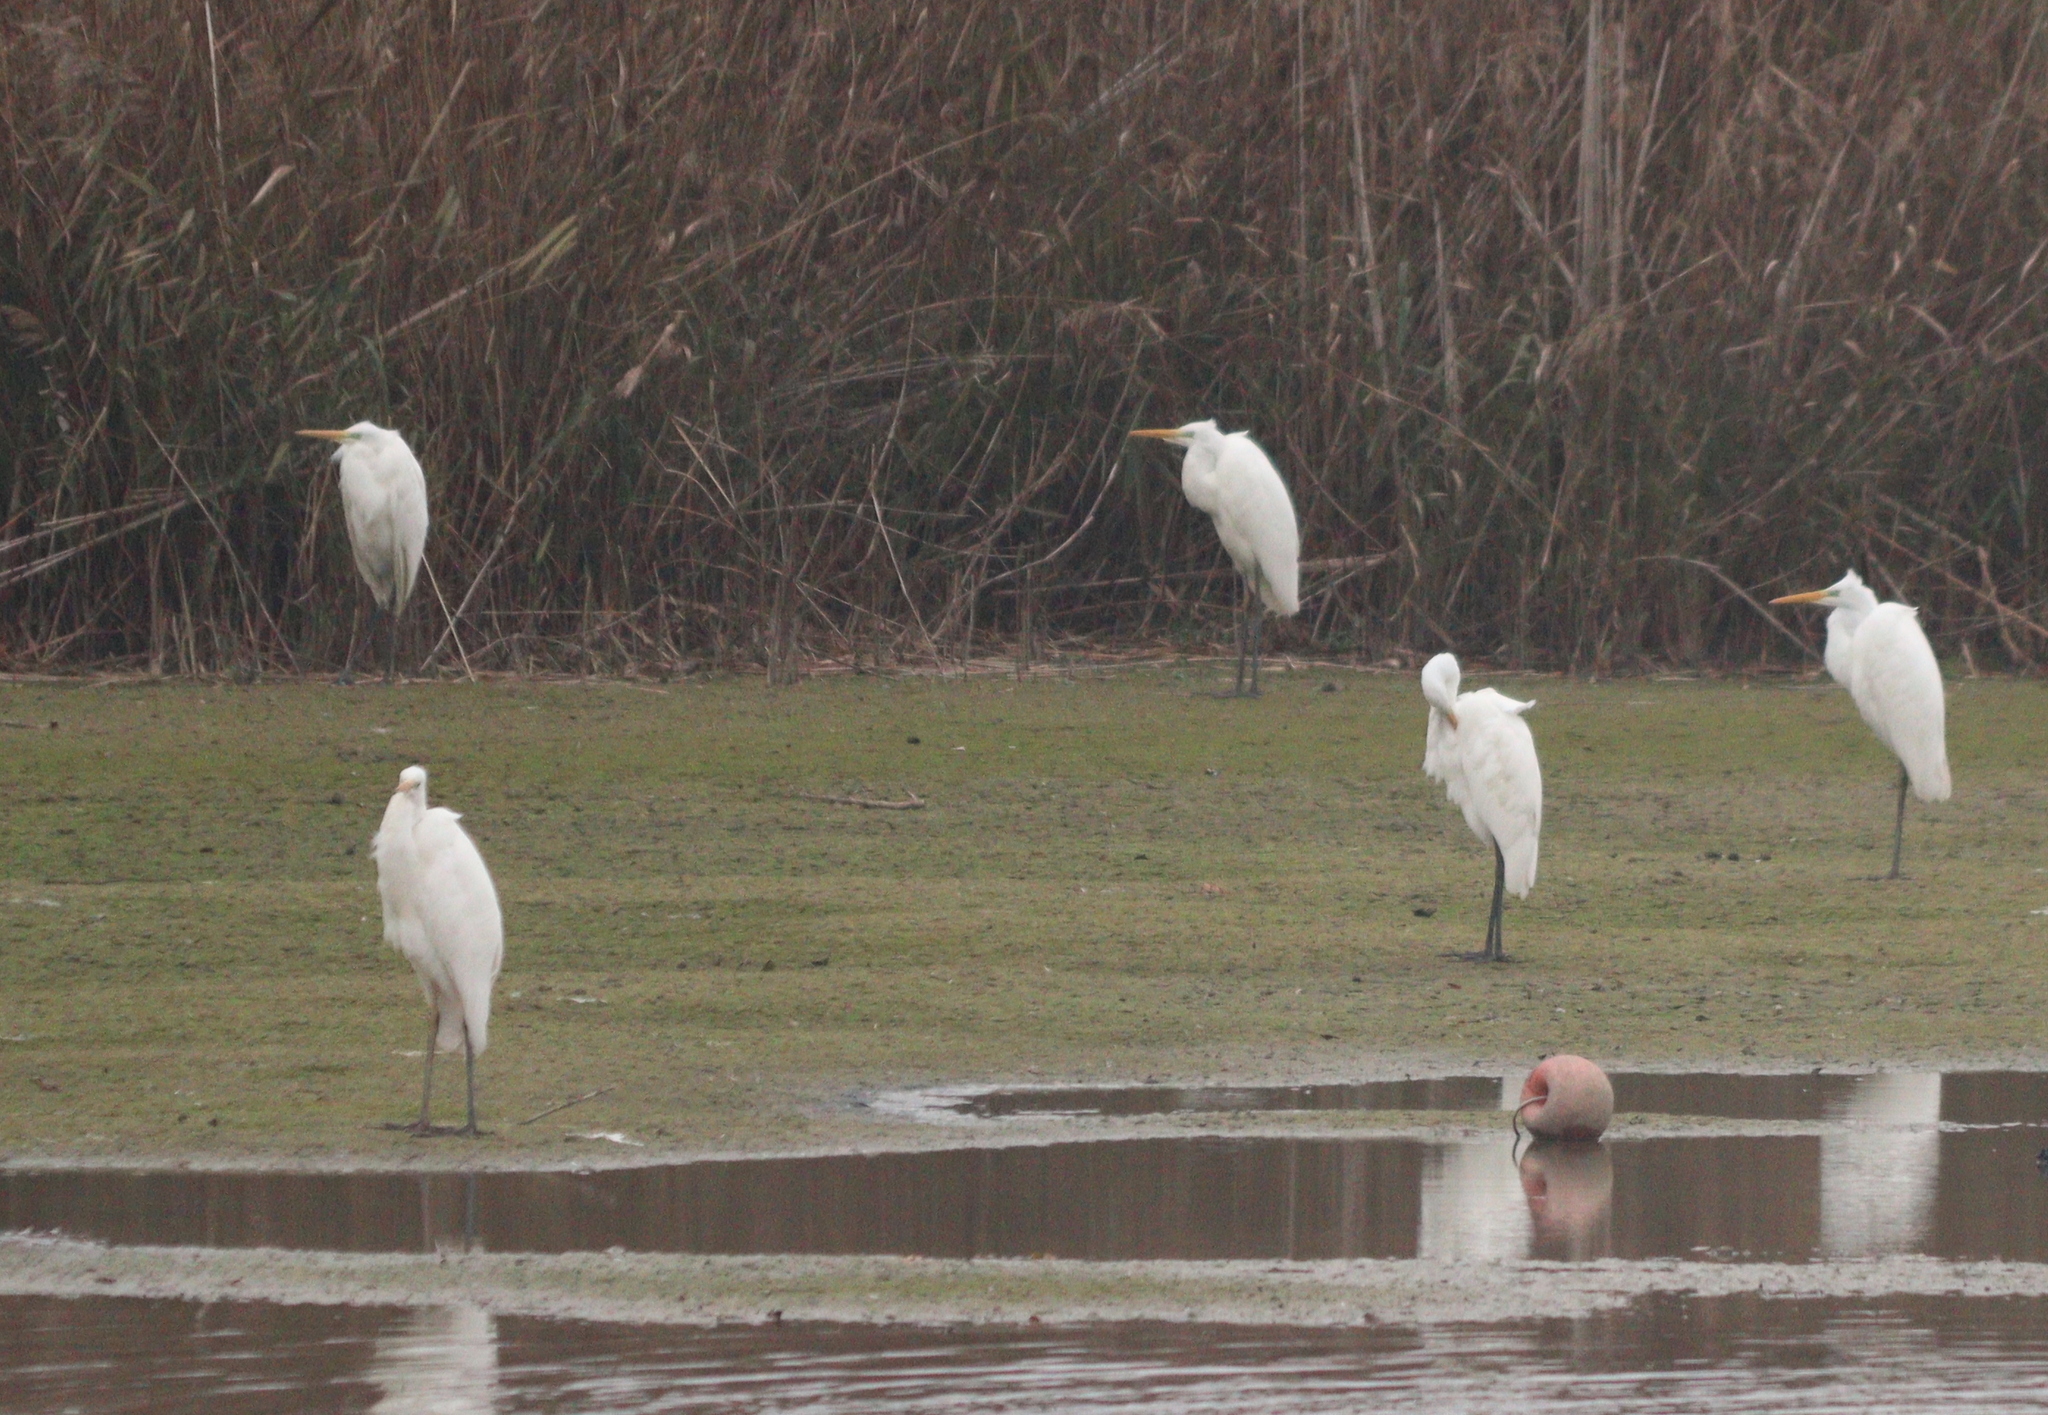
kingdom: Animalia
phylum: Chordata
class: Aves
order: Pelecaniformes
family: Ardeidae
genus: Ardea
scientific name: Ardea alba
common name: Great egret
